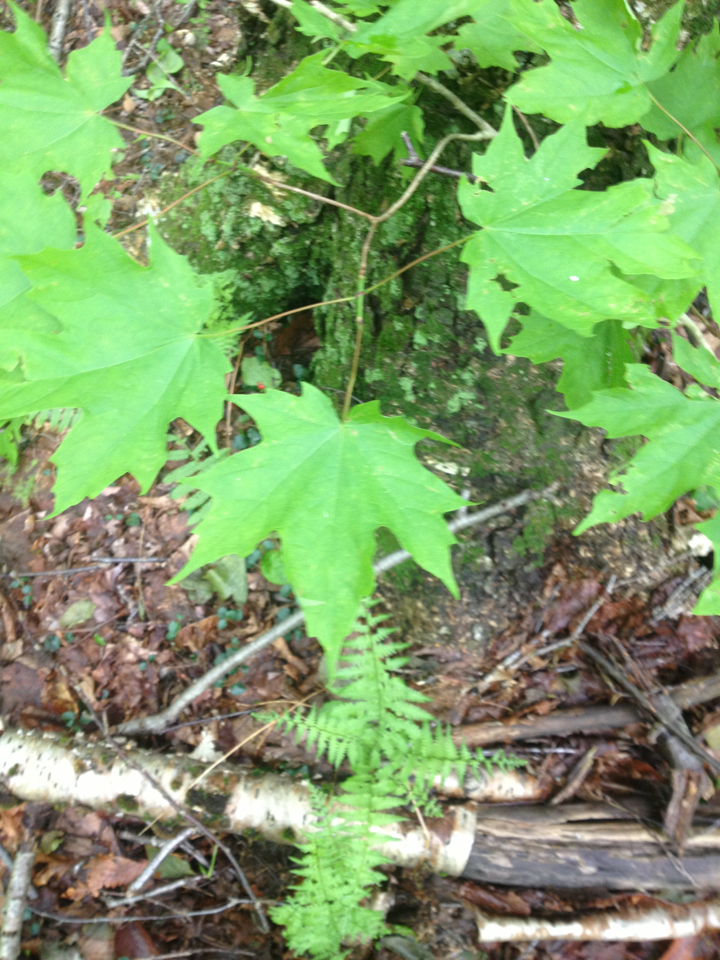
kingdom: Plantae
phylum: Tracheophyta
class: Magnoliopsida
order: Sapindales
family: Sapindaceae
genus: Acer
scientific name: Acer saccharum
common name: Sugar maple
